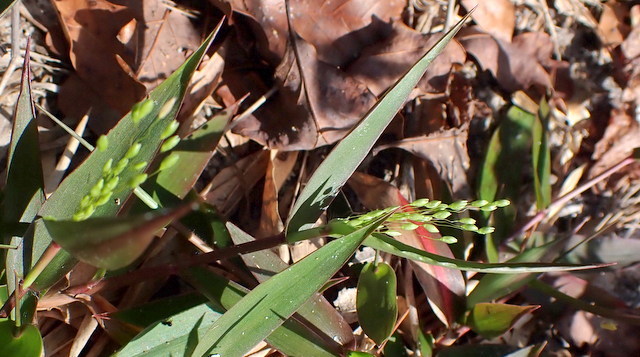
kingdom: Plantae
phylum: Tracheophyta
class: Liliopsida
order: Poales
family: Poaceae
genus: Dichanthelium
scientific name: Dichanthelium commutatum
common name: Variable witchgrass
